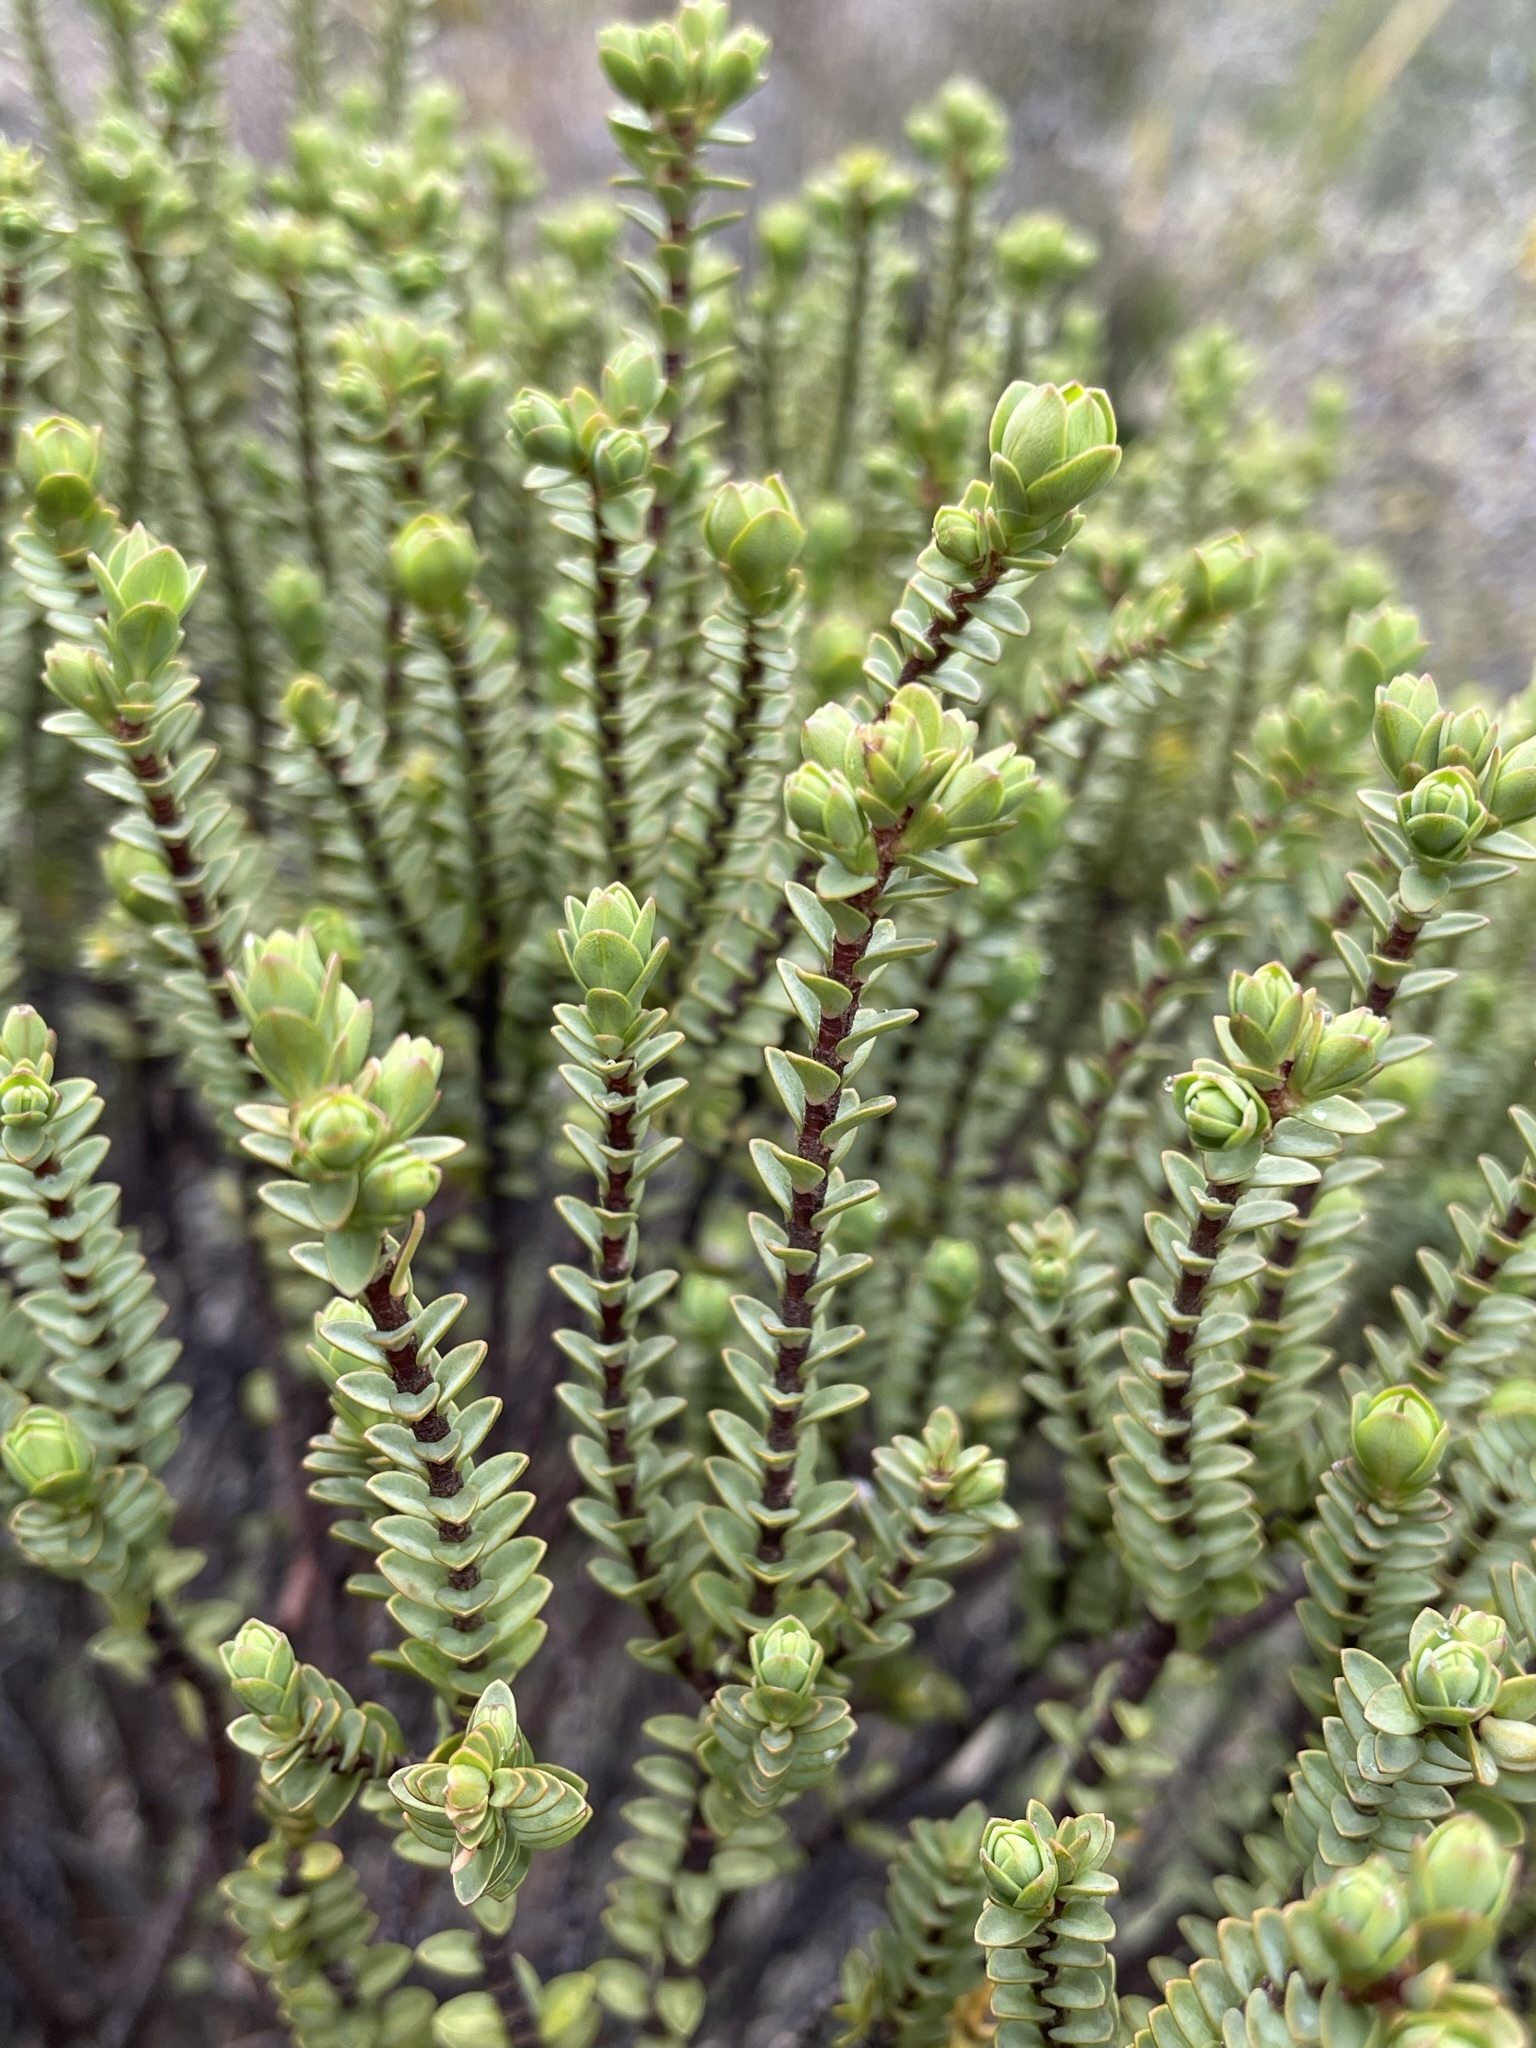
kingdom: Plantae
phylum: Tracheophyta
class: Magnoliopsida
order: Malvales
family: Thymelaeaceae
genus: Pimelea
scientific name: Pimelea traversii
